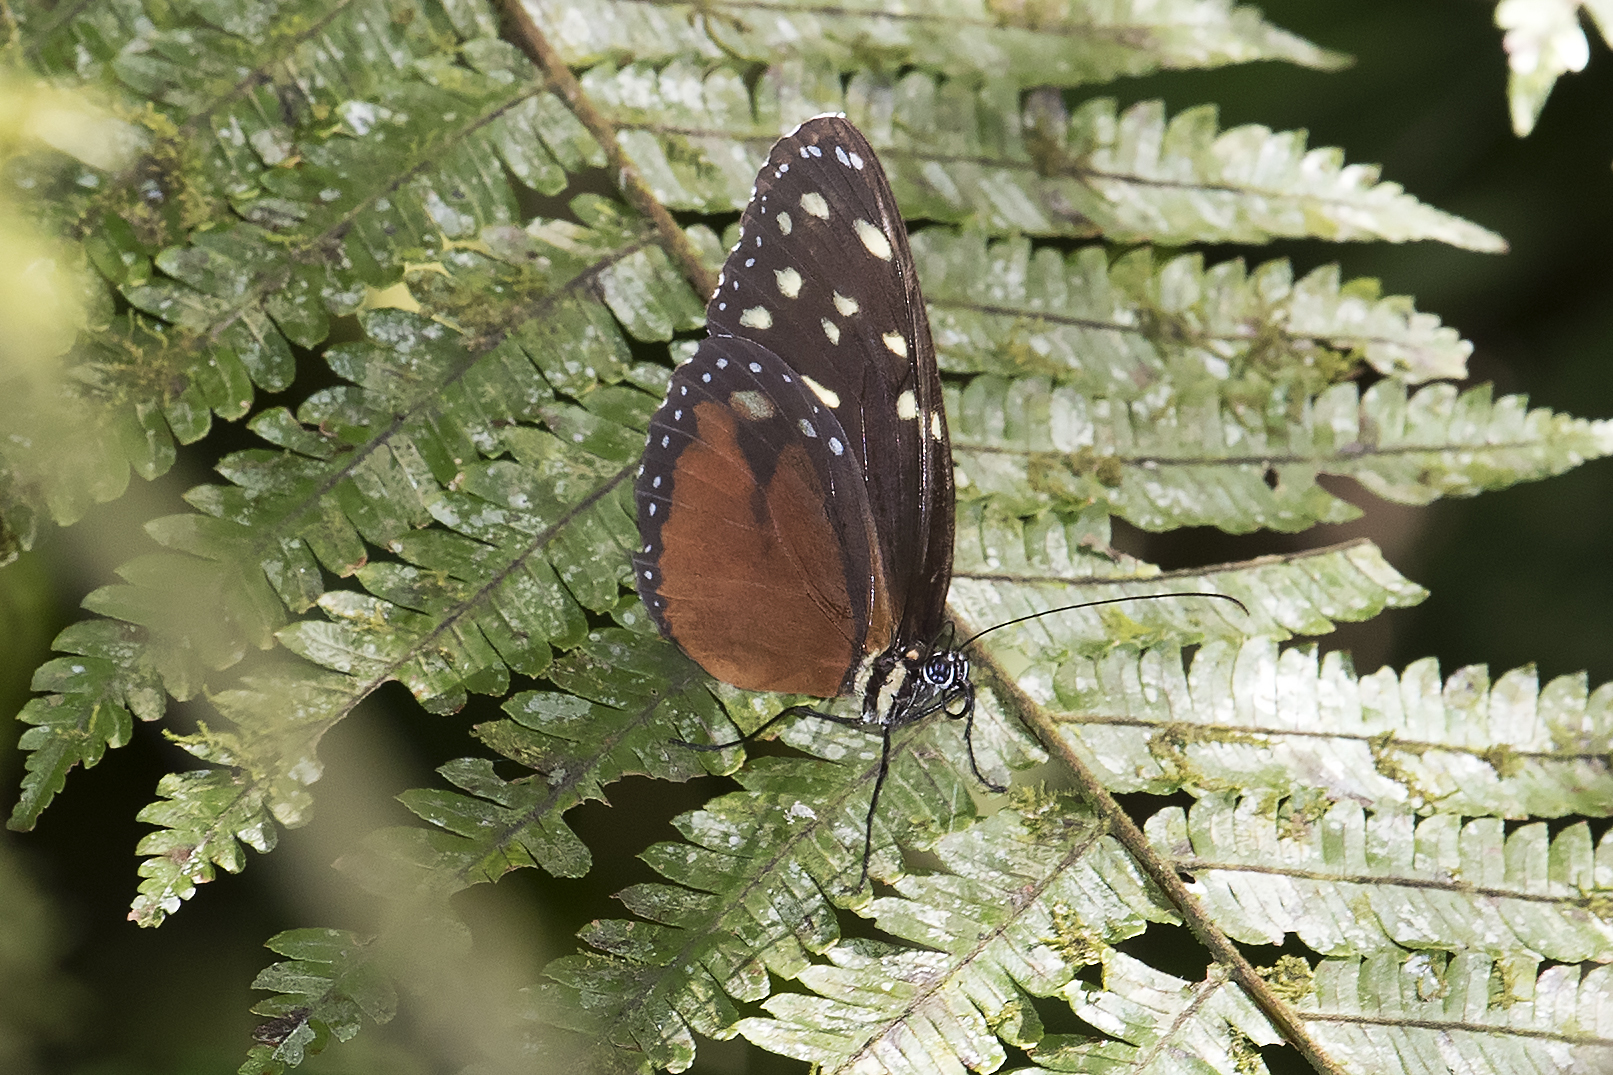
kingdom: Animalia
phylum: Arthropoda
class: Insecta
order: Lepidoptera
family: Nymphalidae
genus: Tithorea
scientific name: Tithorea tarricina
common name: Cream-spotted tigerwing
